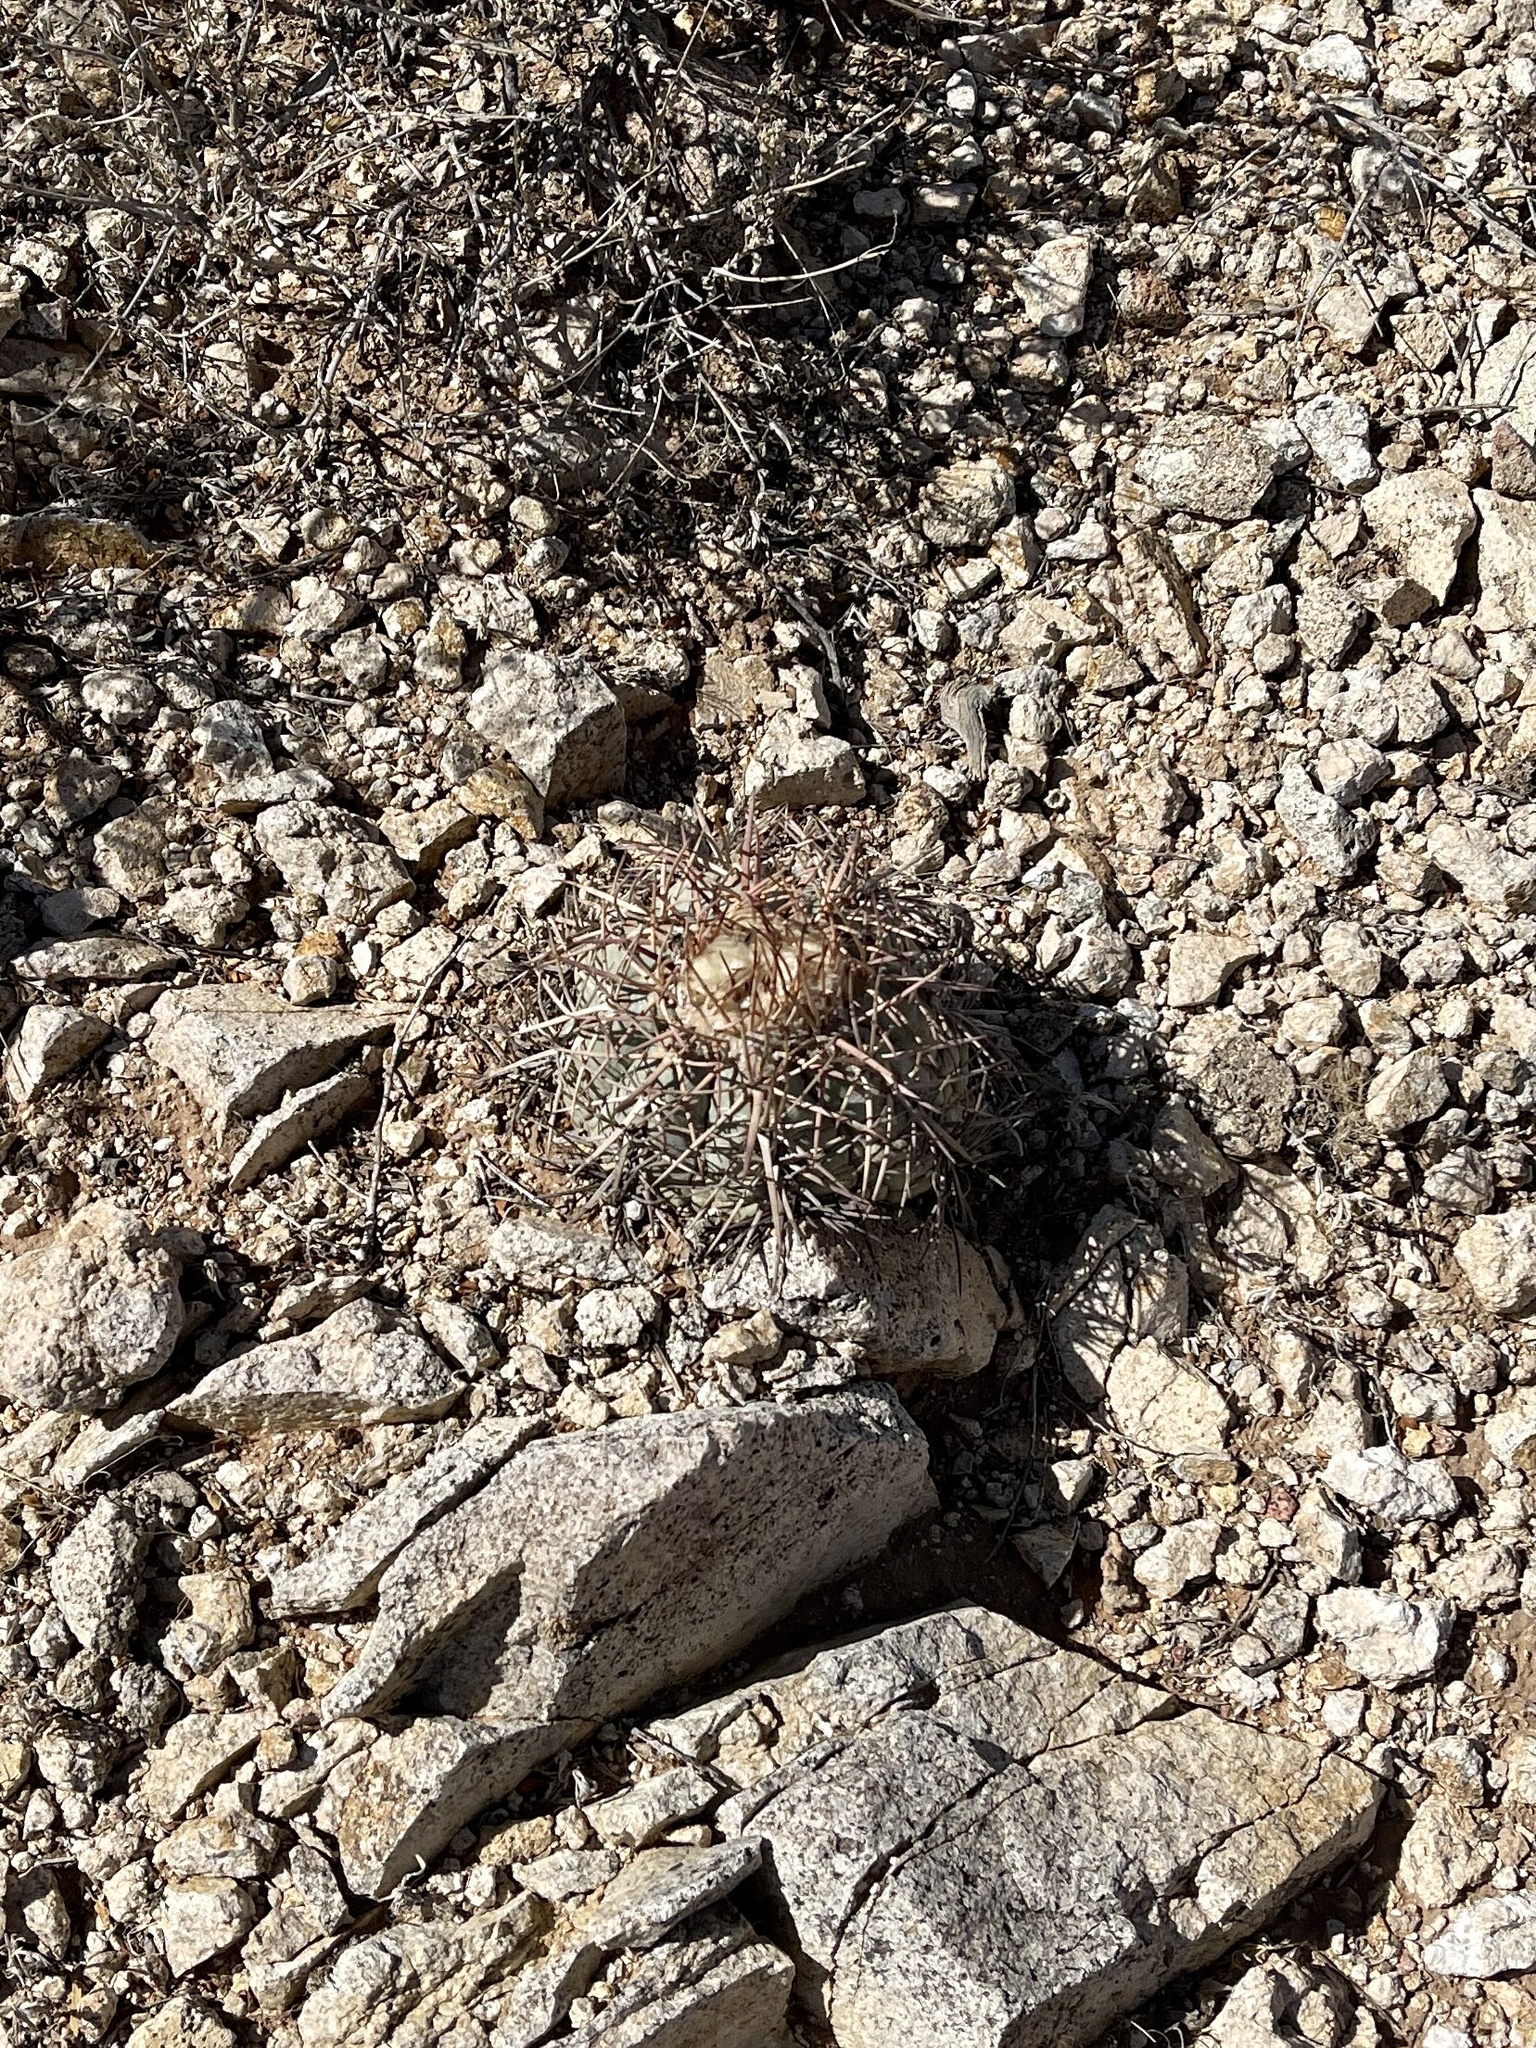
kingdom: Plantae
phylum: Tracheophyta
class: Magnoliopsida
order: Caryophyllales
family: Cactaceae
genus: Echinocactus
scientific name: Echinocactus horizonthalonius
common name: Devilshead
